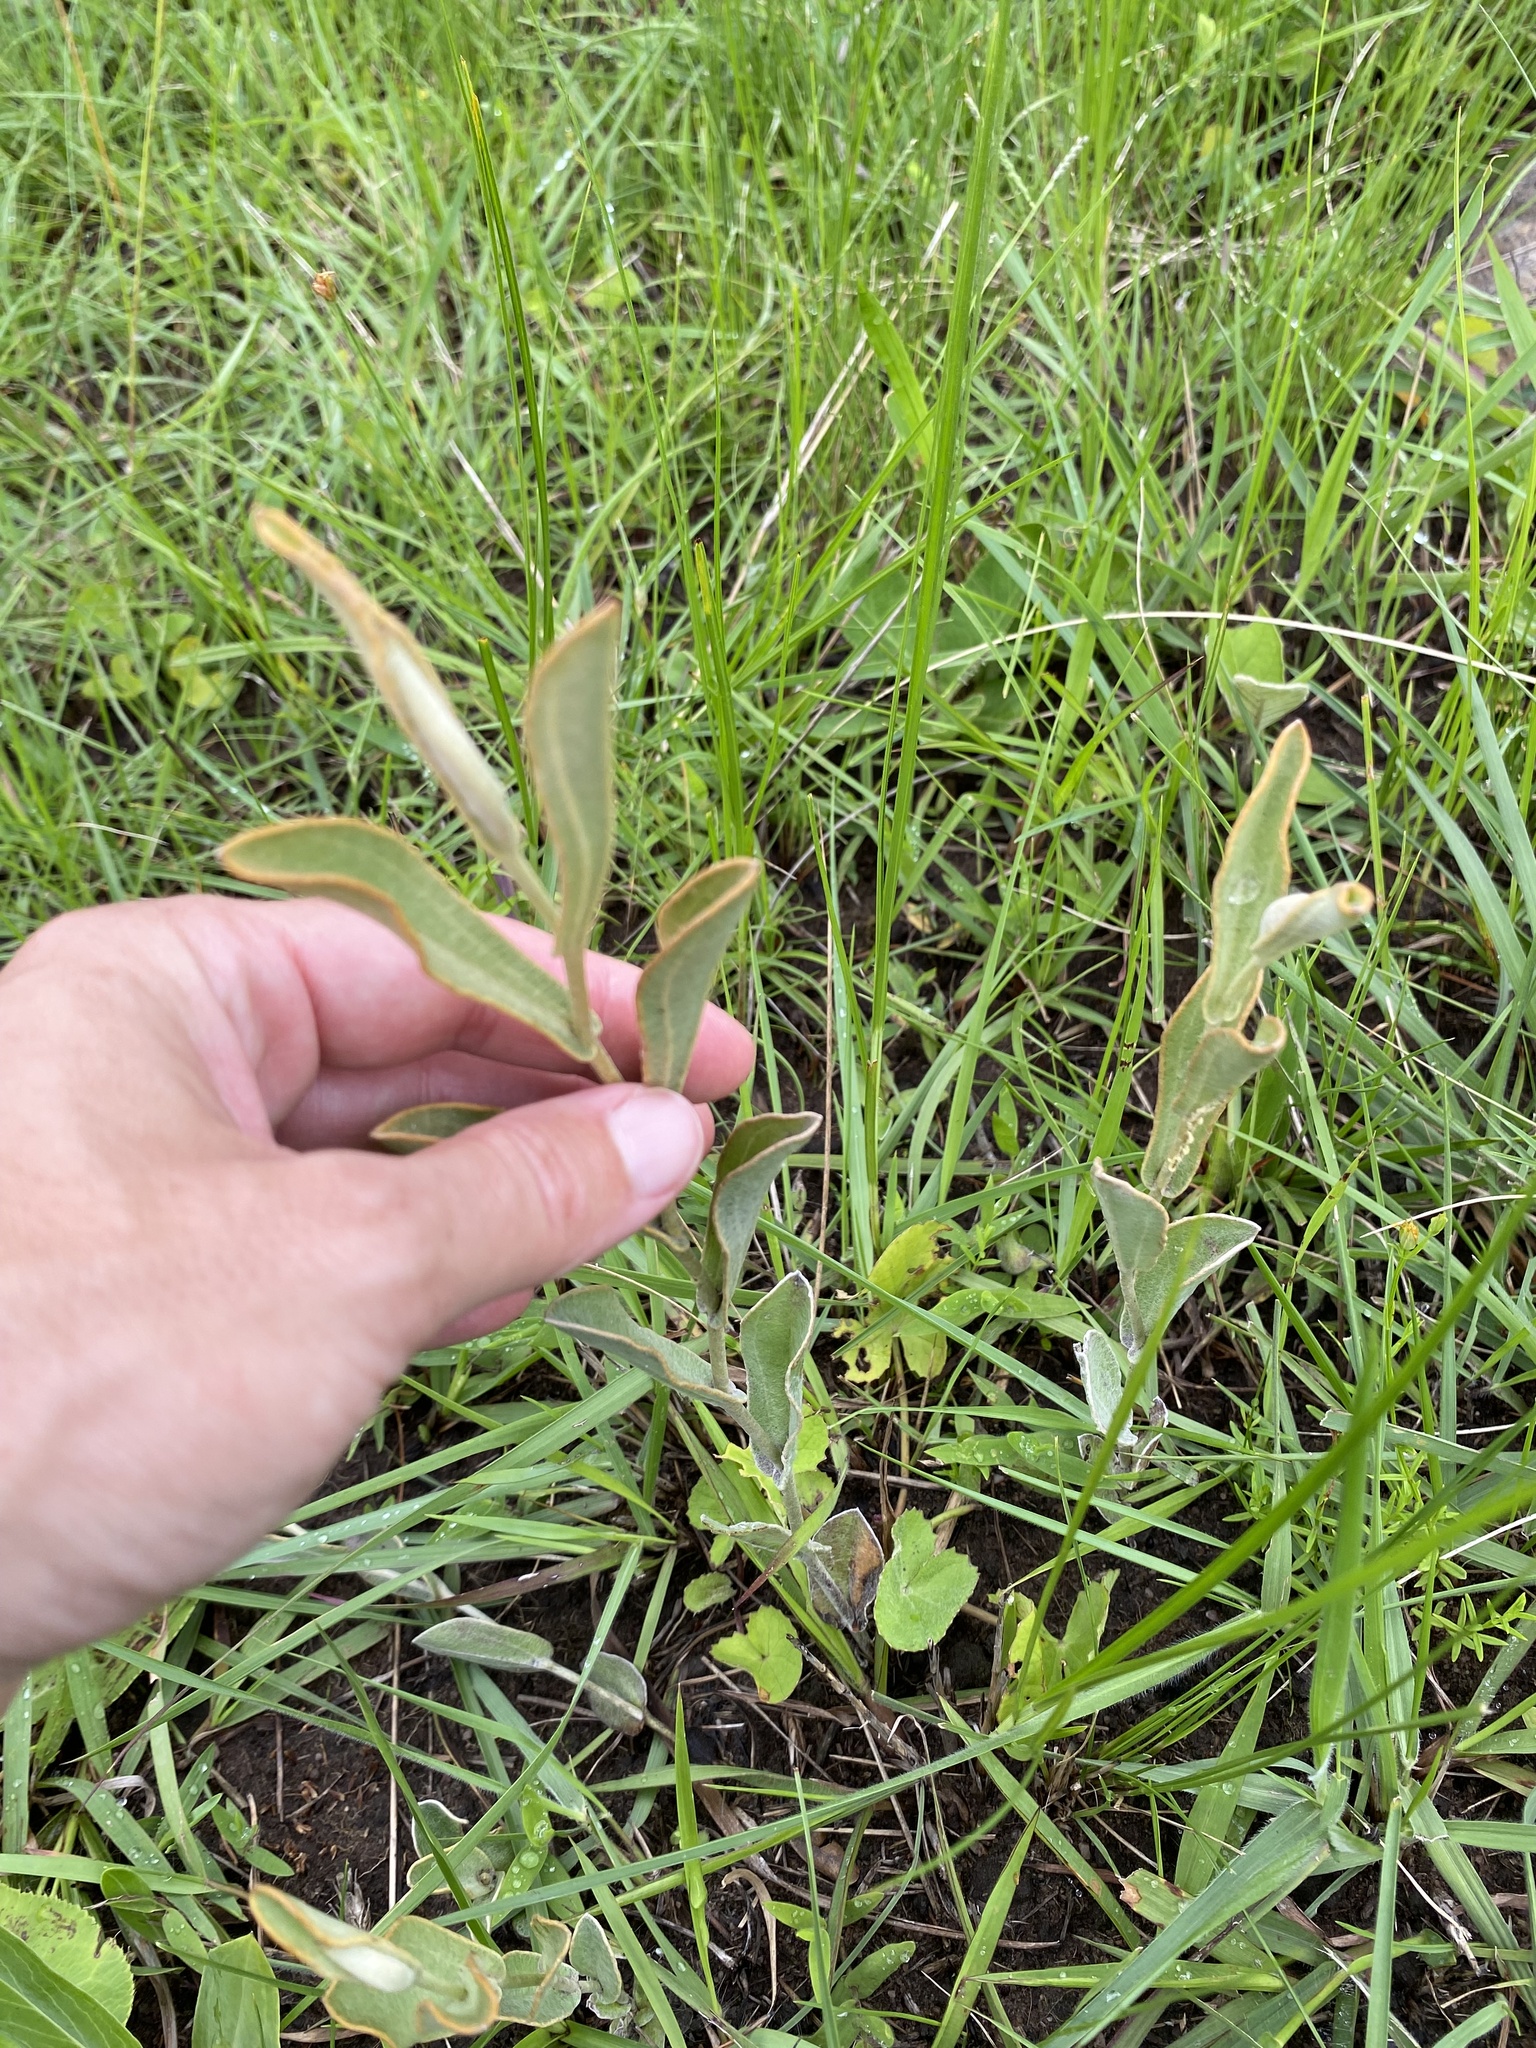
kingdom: Plantae
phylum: Tracheophyta
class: Magnoliopsida
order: Asterales
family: Asteraceae
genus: Helichrysum
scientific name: Helichrysum pannosum
